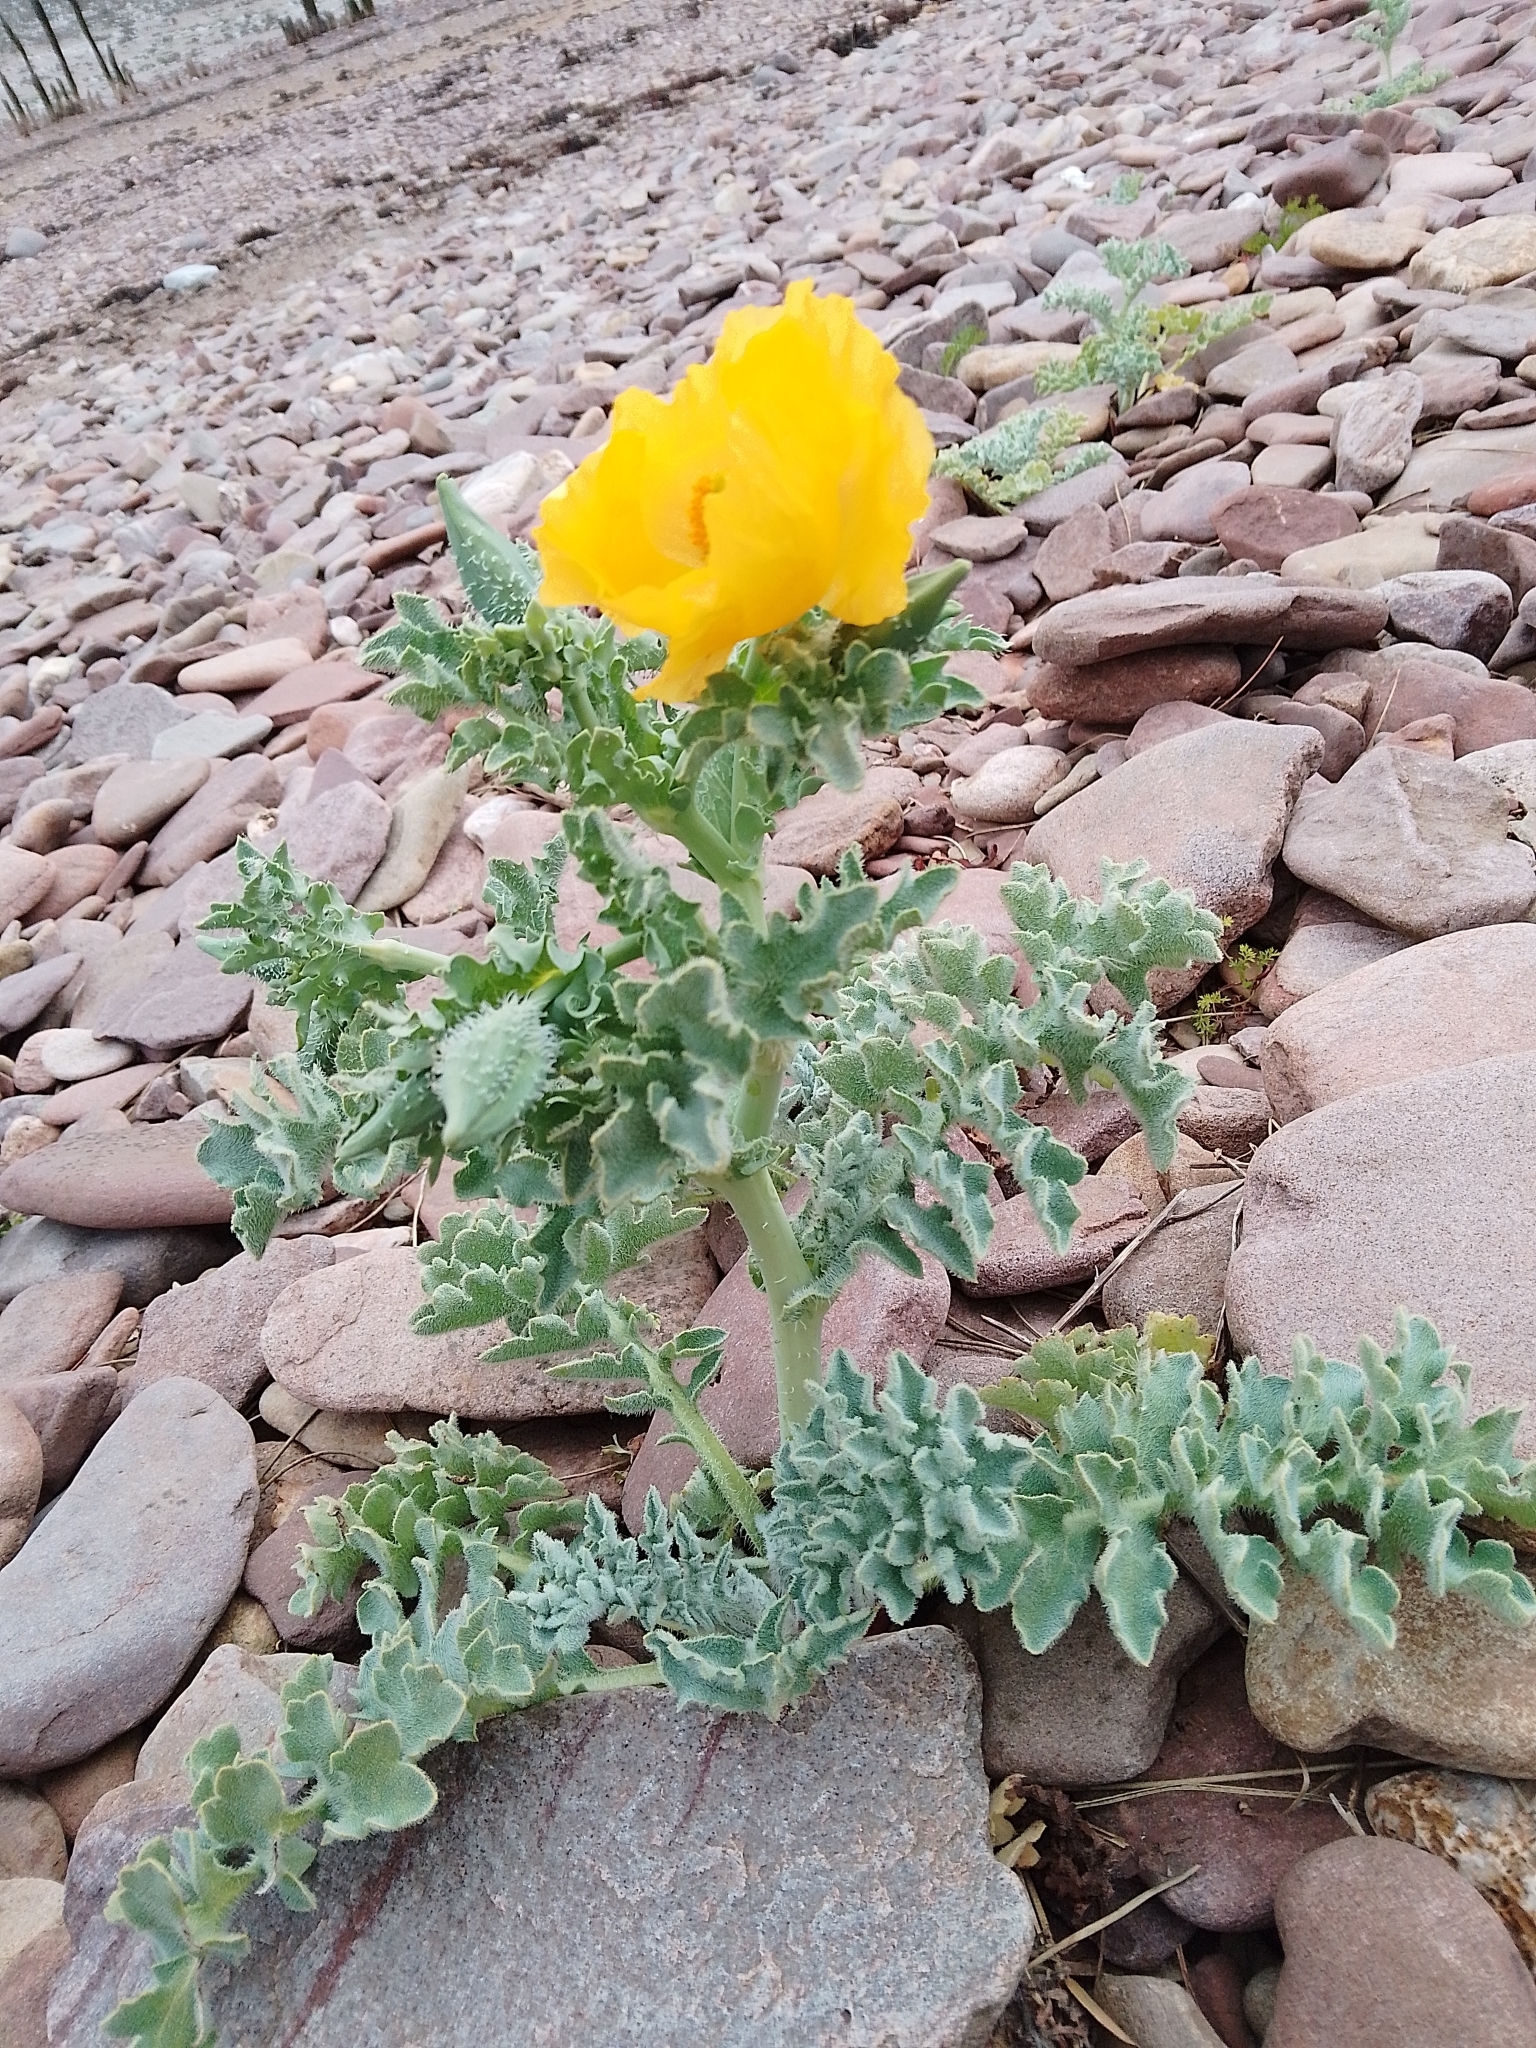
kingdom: Plantae
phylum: Tracheophyta
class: Magnoliopsida
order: Ranunculales
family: Papaveraceae
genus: Glaucium
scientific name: Glaucium flavum
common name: Yellow horned-poppy
